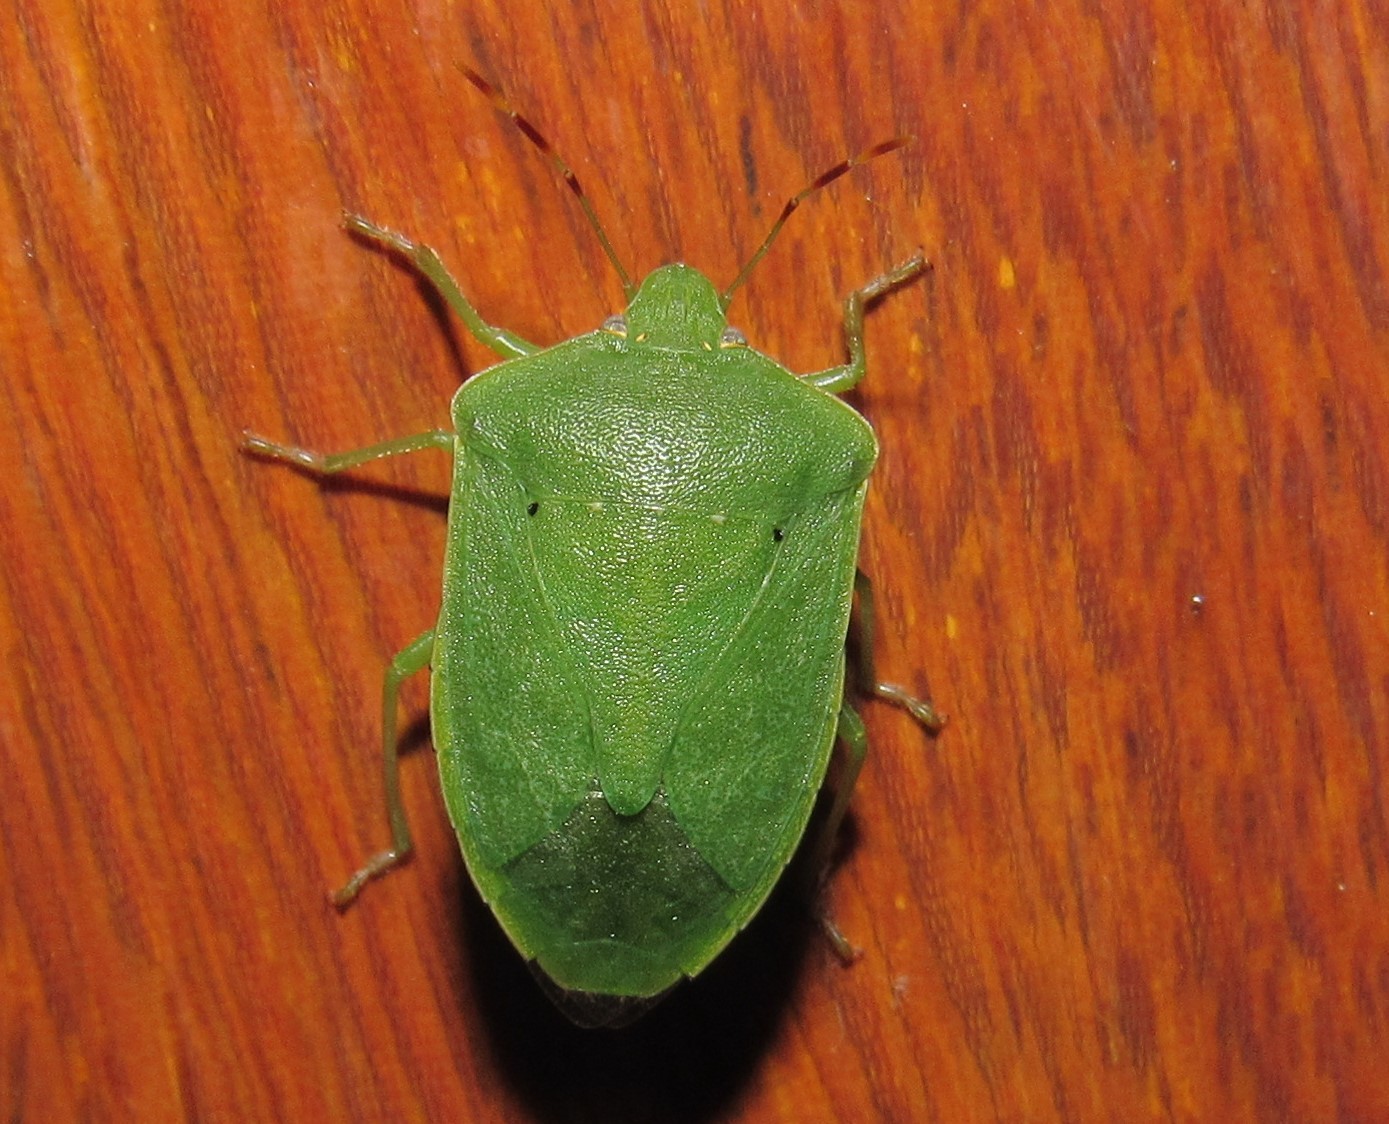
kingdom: Animalia
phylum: Arthropoda
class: Insecta
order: Hemiptera
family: Pentatomidae
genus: Nezara
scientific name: Nezara viridula
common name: Southern green stink bug
